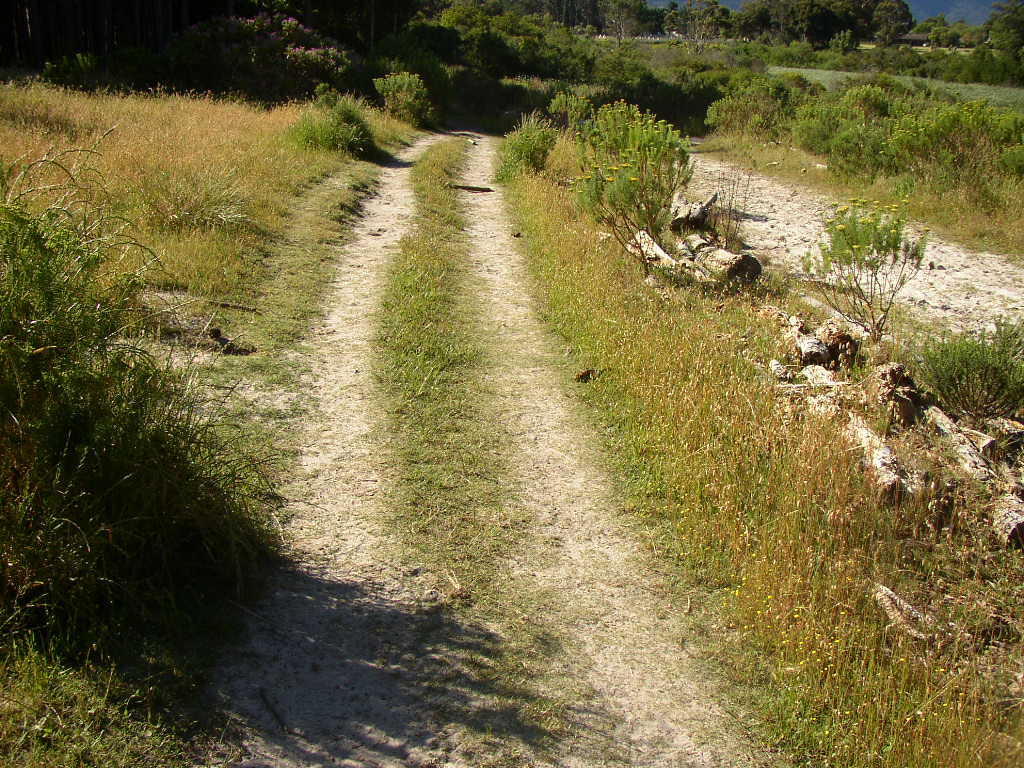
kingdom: Plantae
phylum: Tracheophyta
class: Liliopsida
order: Poales
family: Poaceae
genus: Briza
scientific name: Briza maxima
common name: Big quakinggrass
